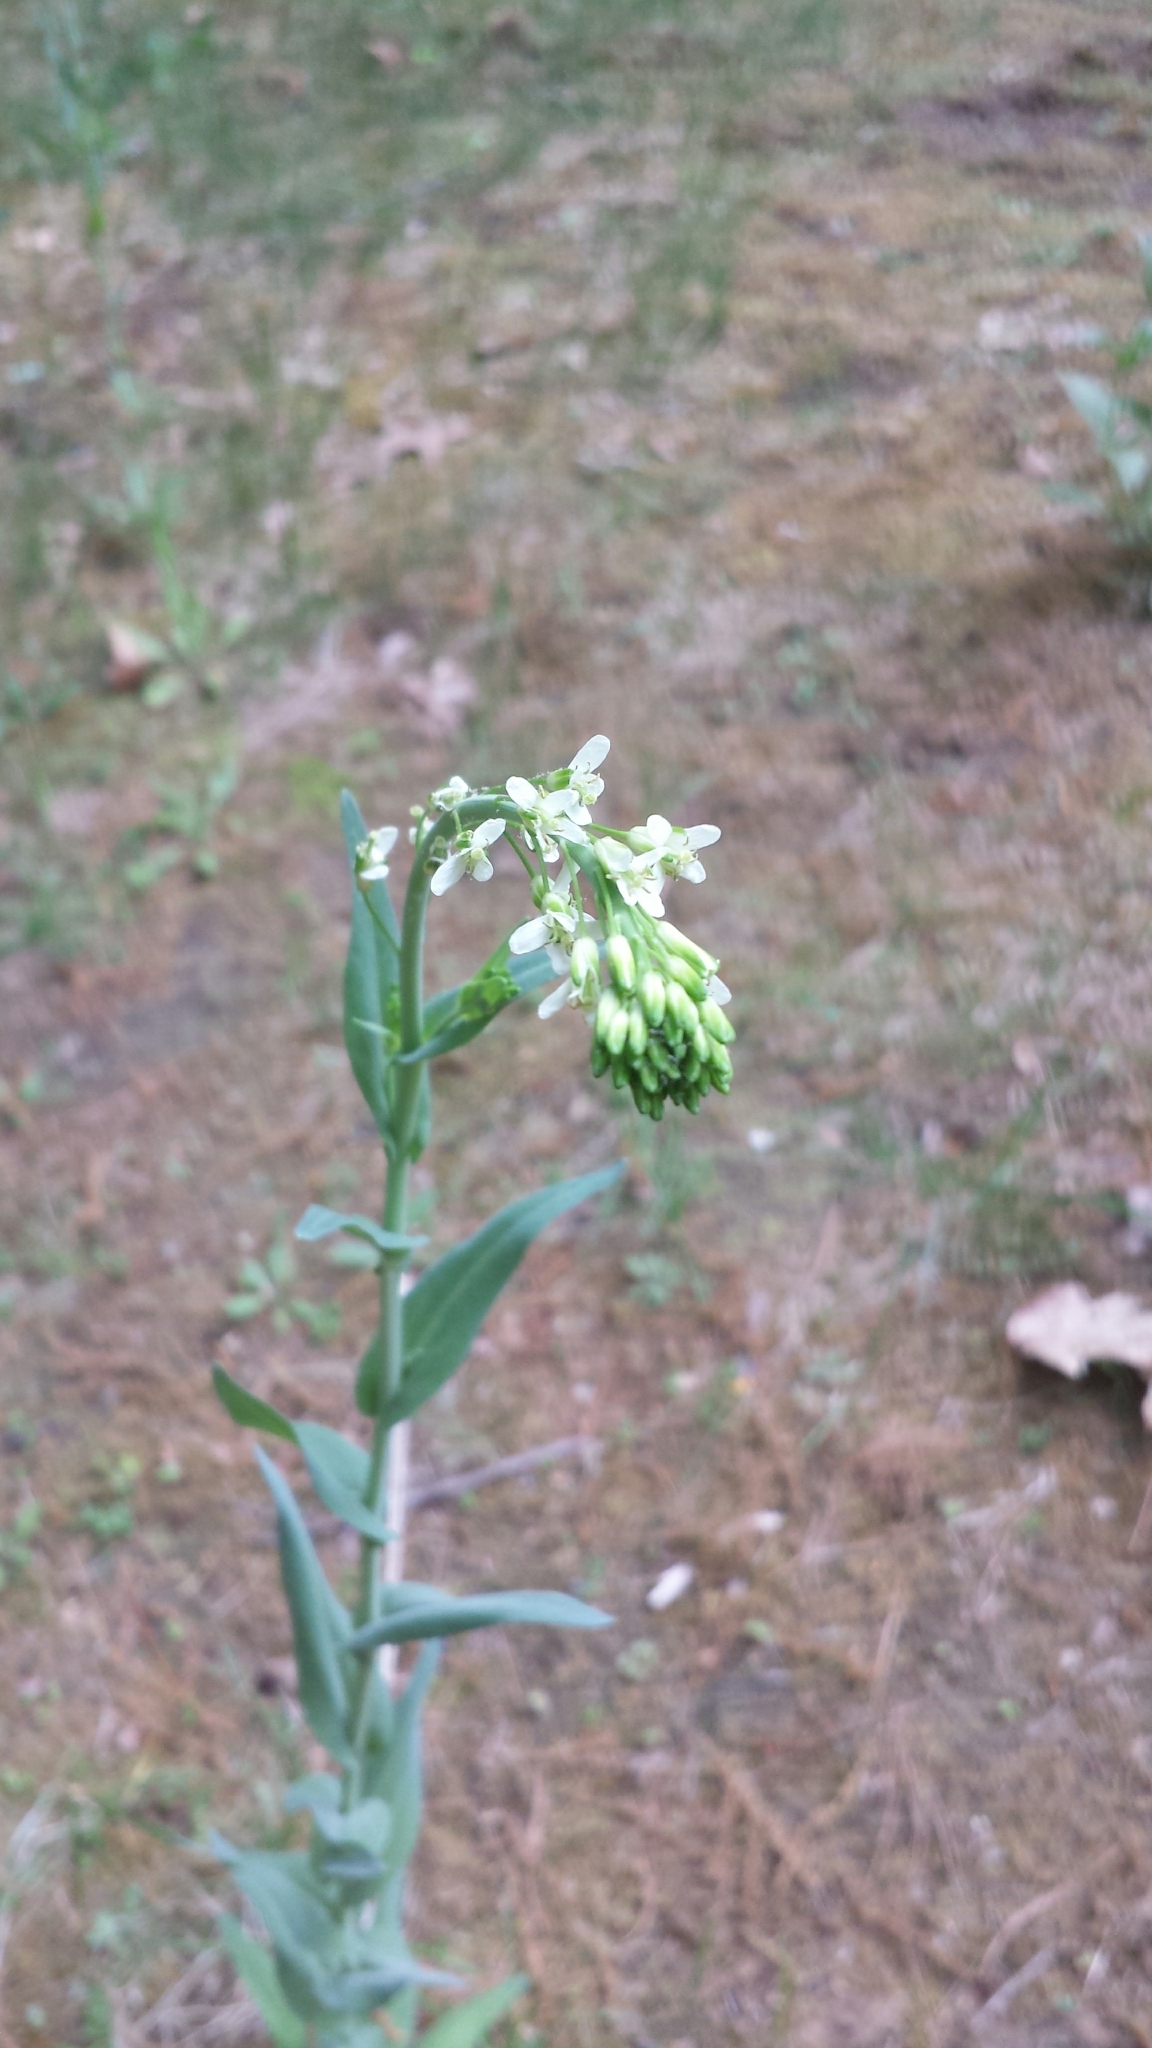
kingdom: Plantae
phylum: Tracheophyta
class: Magnoliopsida
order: Brassicales
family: Brassicaceae
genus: Turritis
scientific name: Turritis glabra
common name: Tower rockcress
